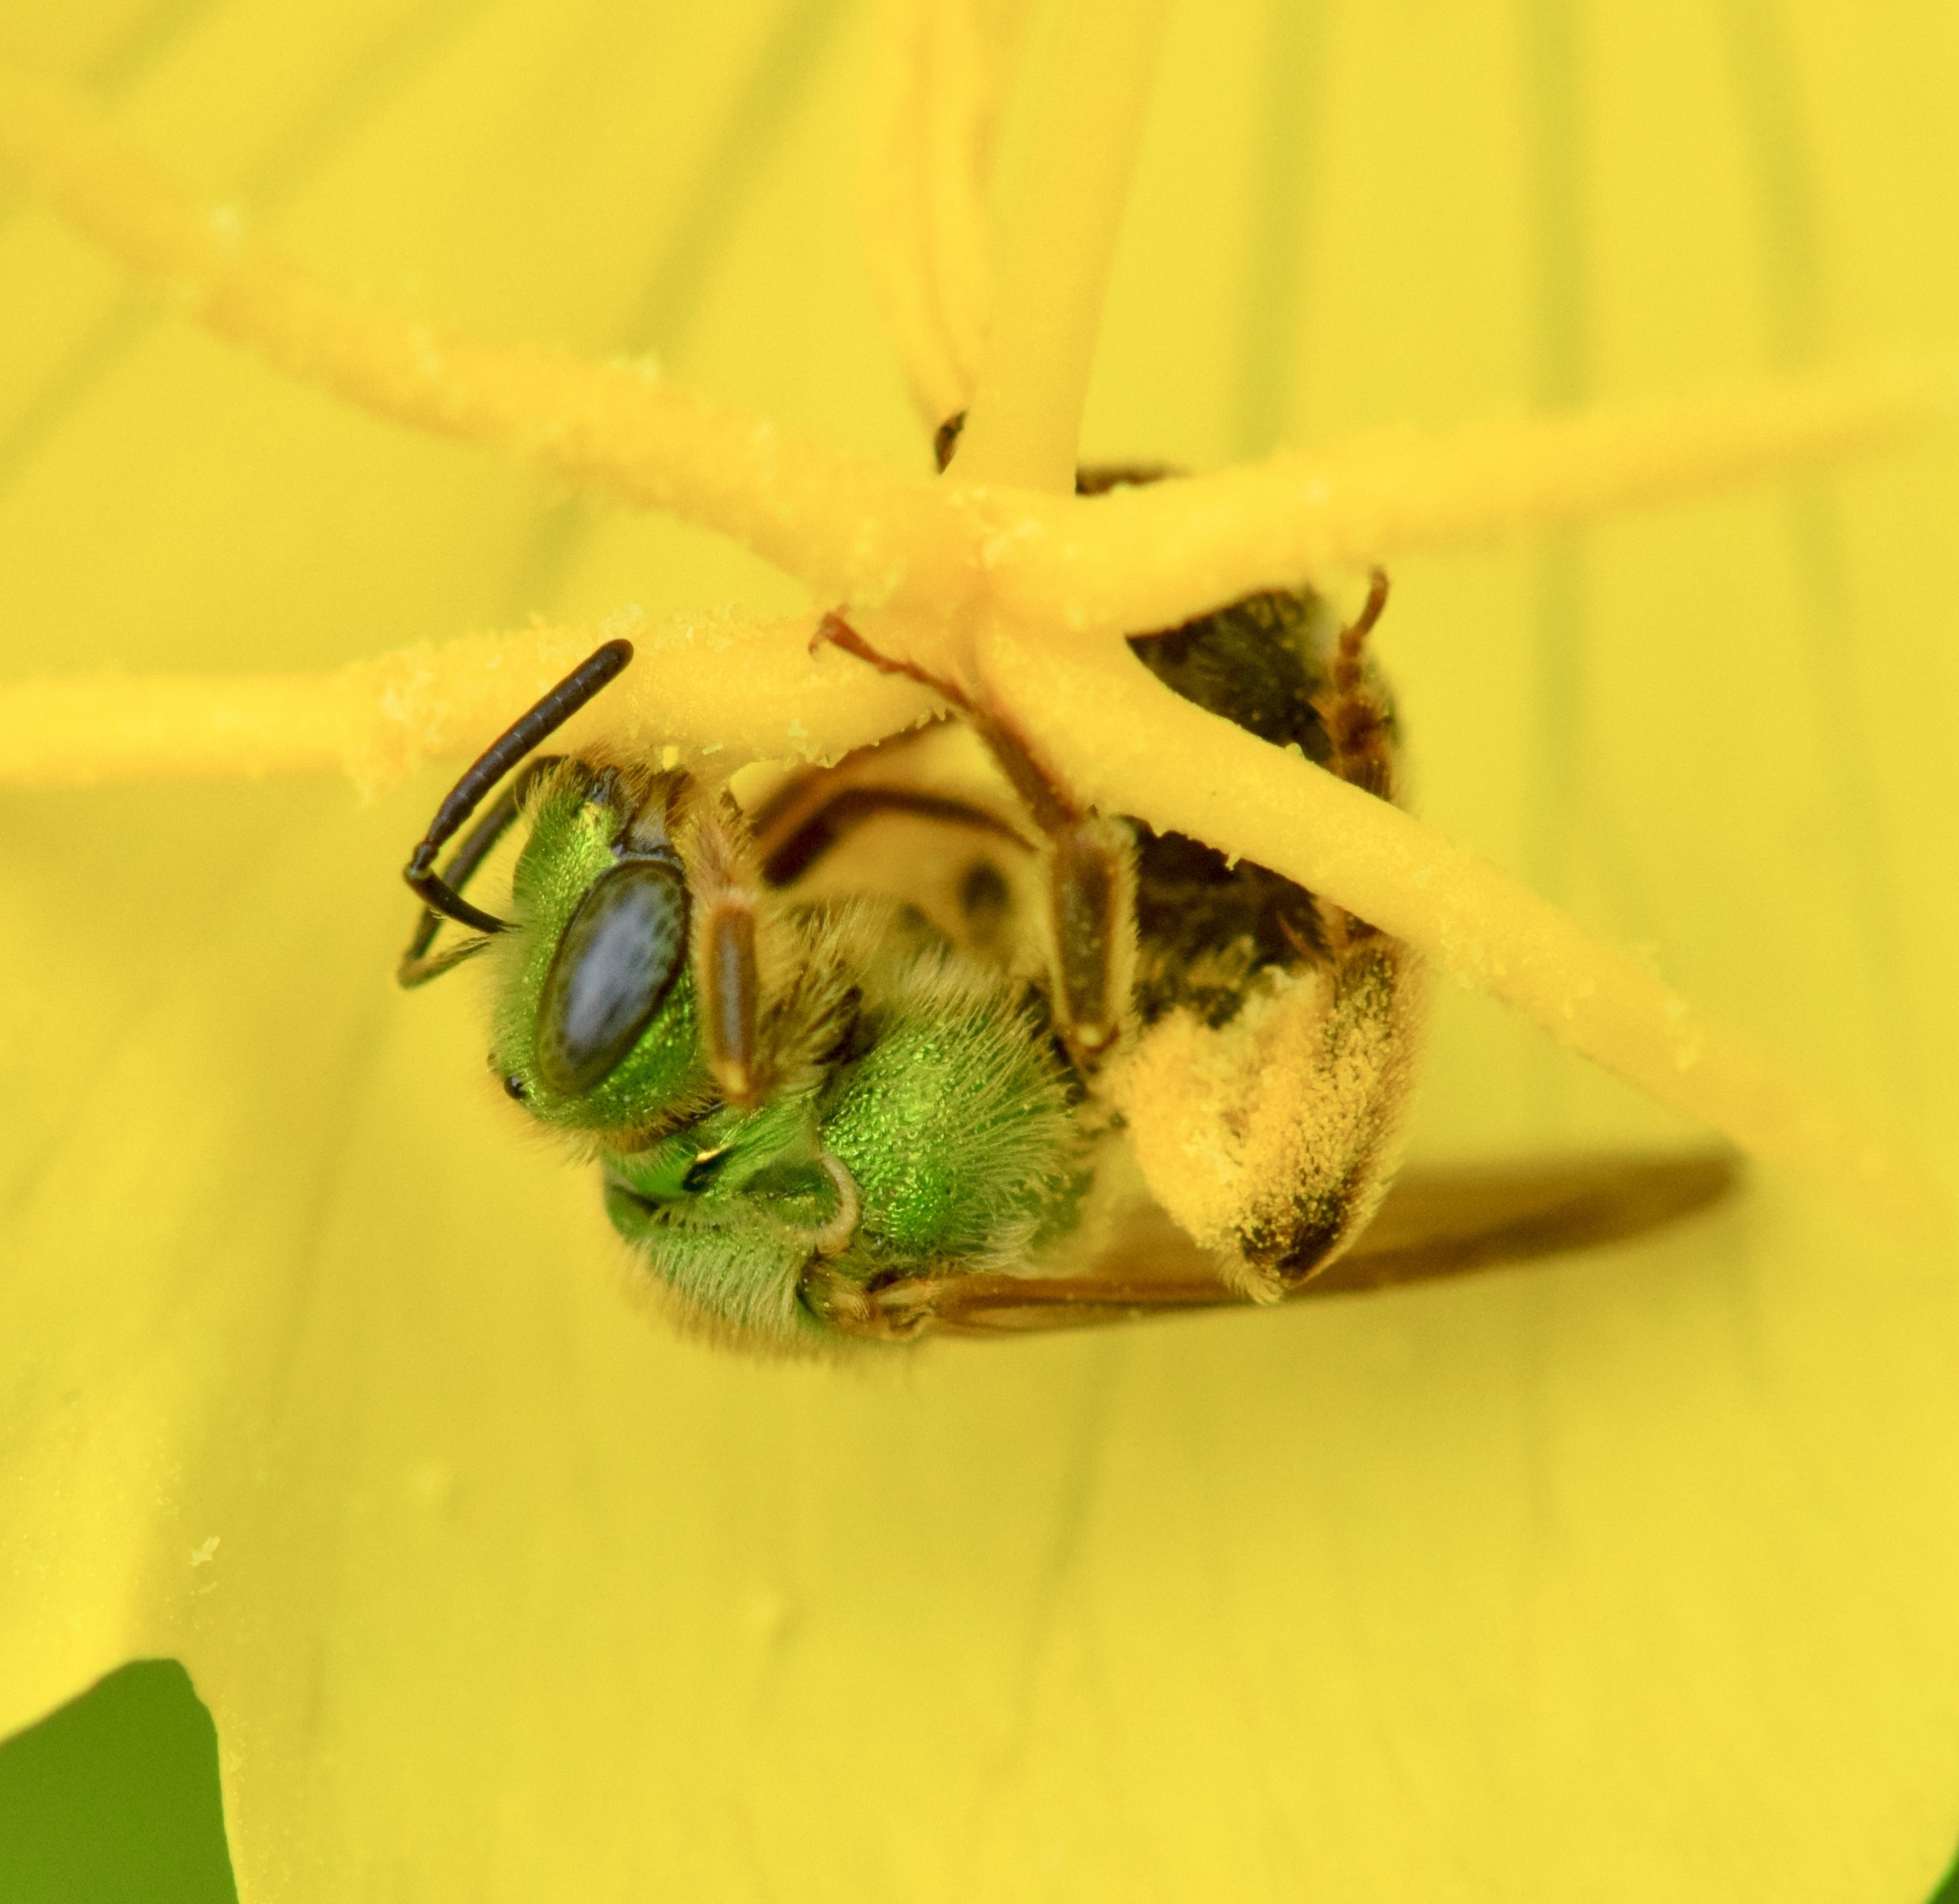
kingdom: Animalia
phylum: Arthropoda
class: Insecta
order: Hymenoptera
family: Halictidae
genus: Agapostemon
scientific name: Agapostemon virescens
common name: Bicolored striped sweat bee
